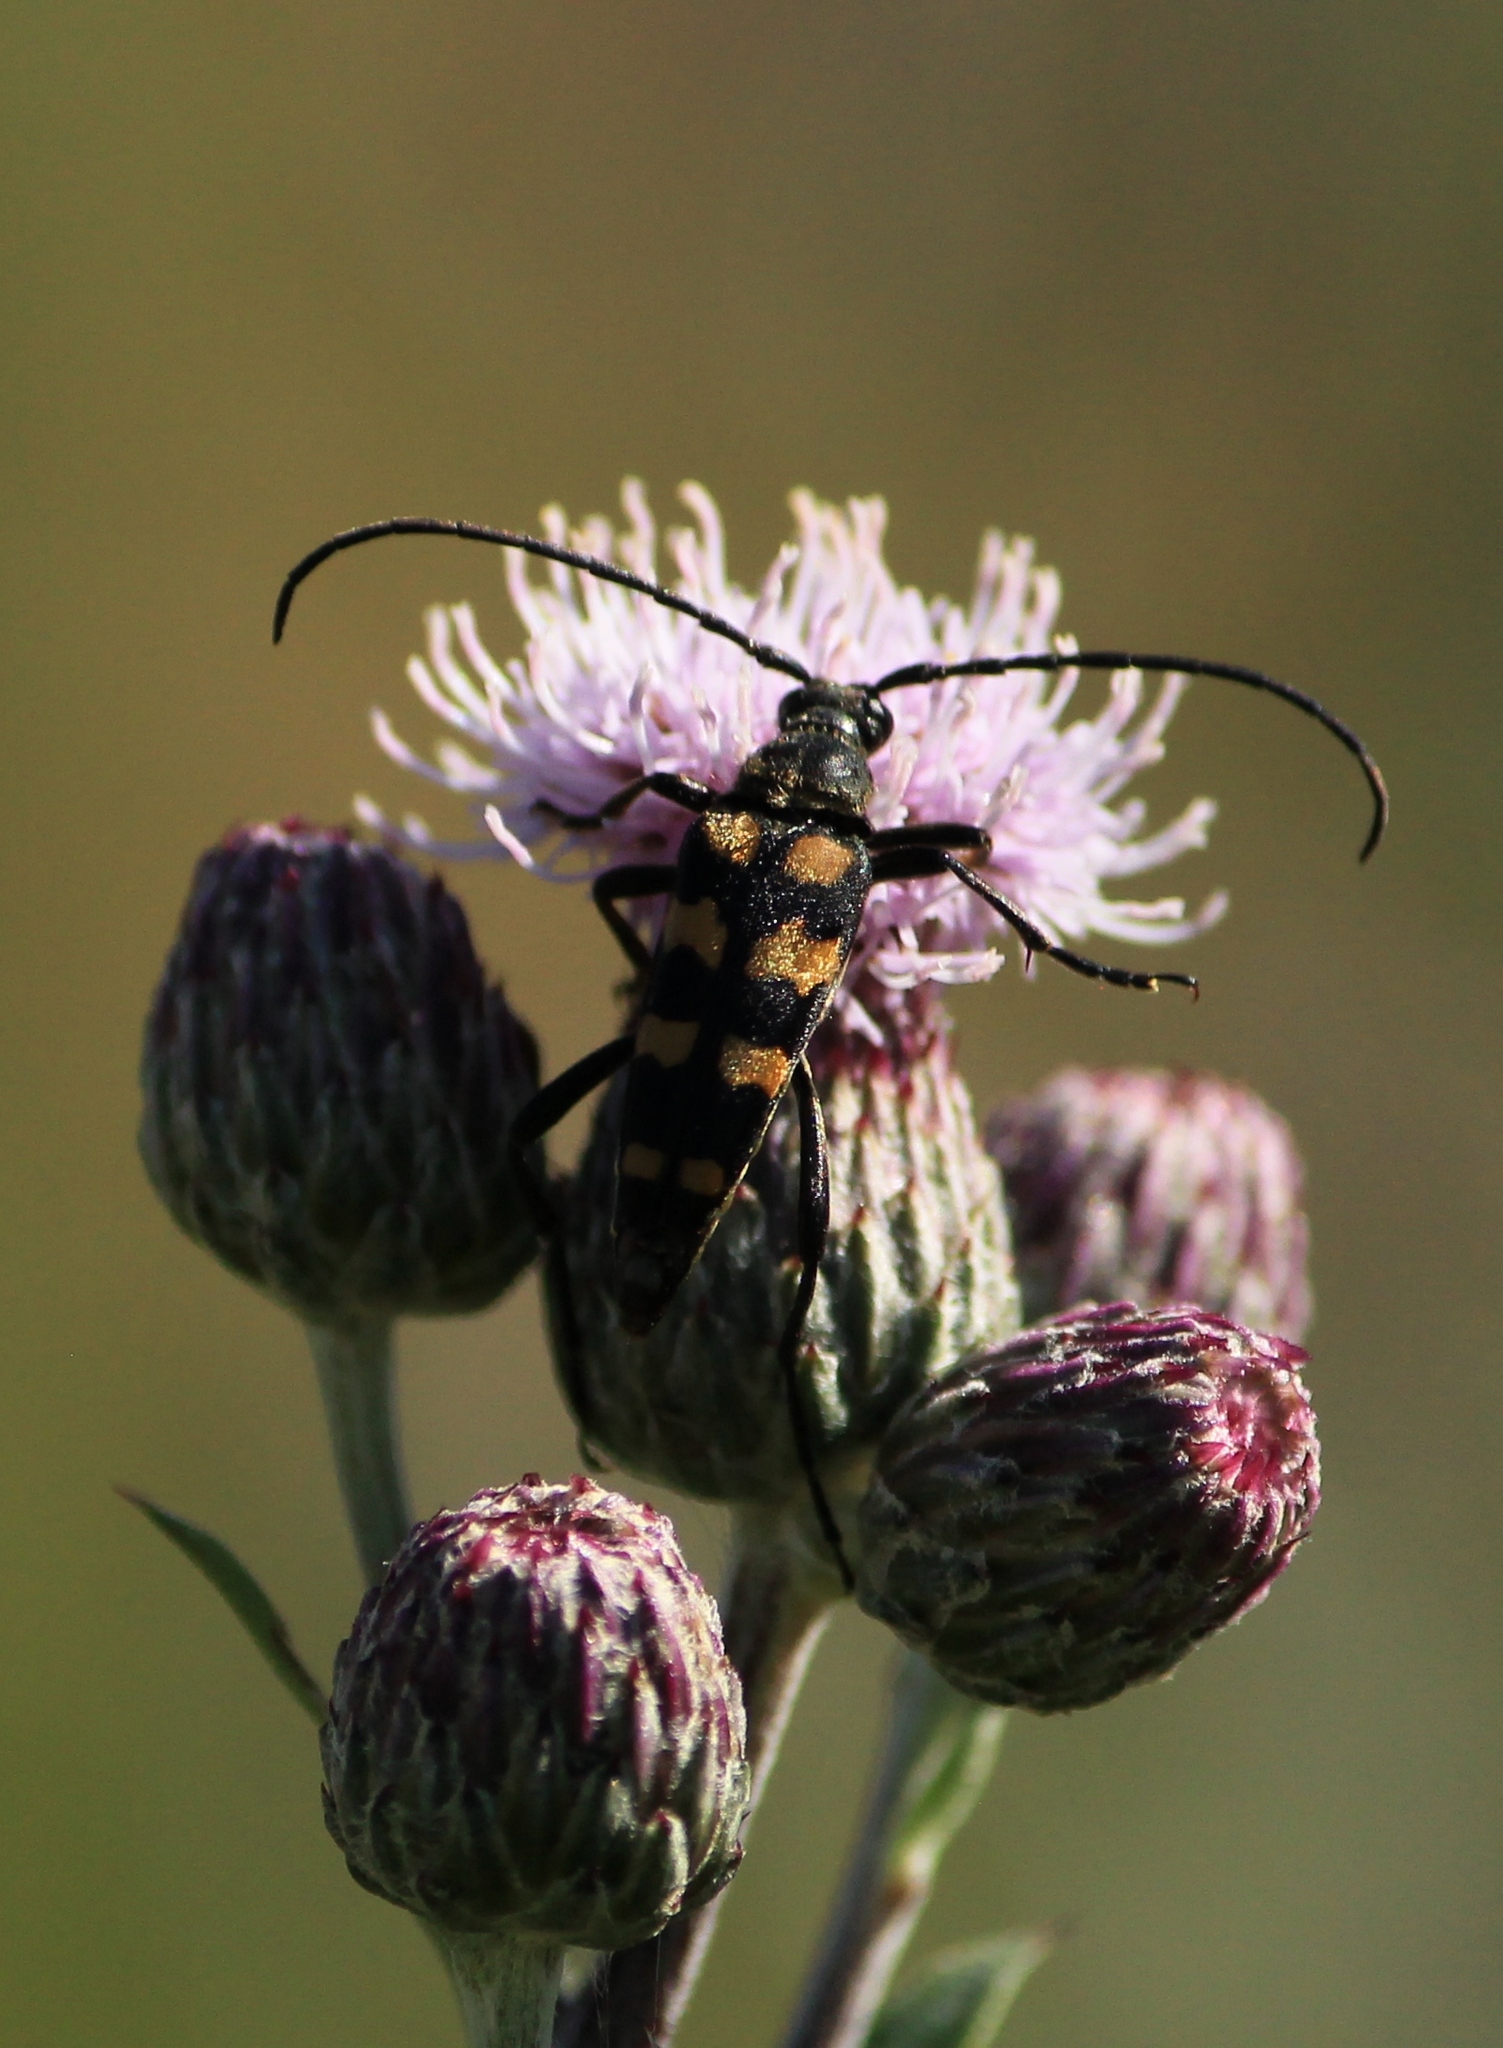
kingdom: Animalia
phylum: Arthropoda
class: Insecta
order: Coleoptera
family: Cerambycidae
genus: Leptura
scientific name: Leptura quadrifasciata
